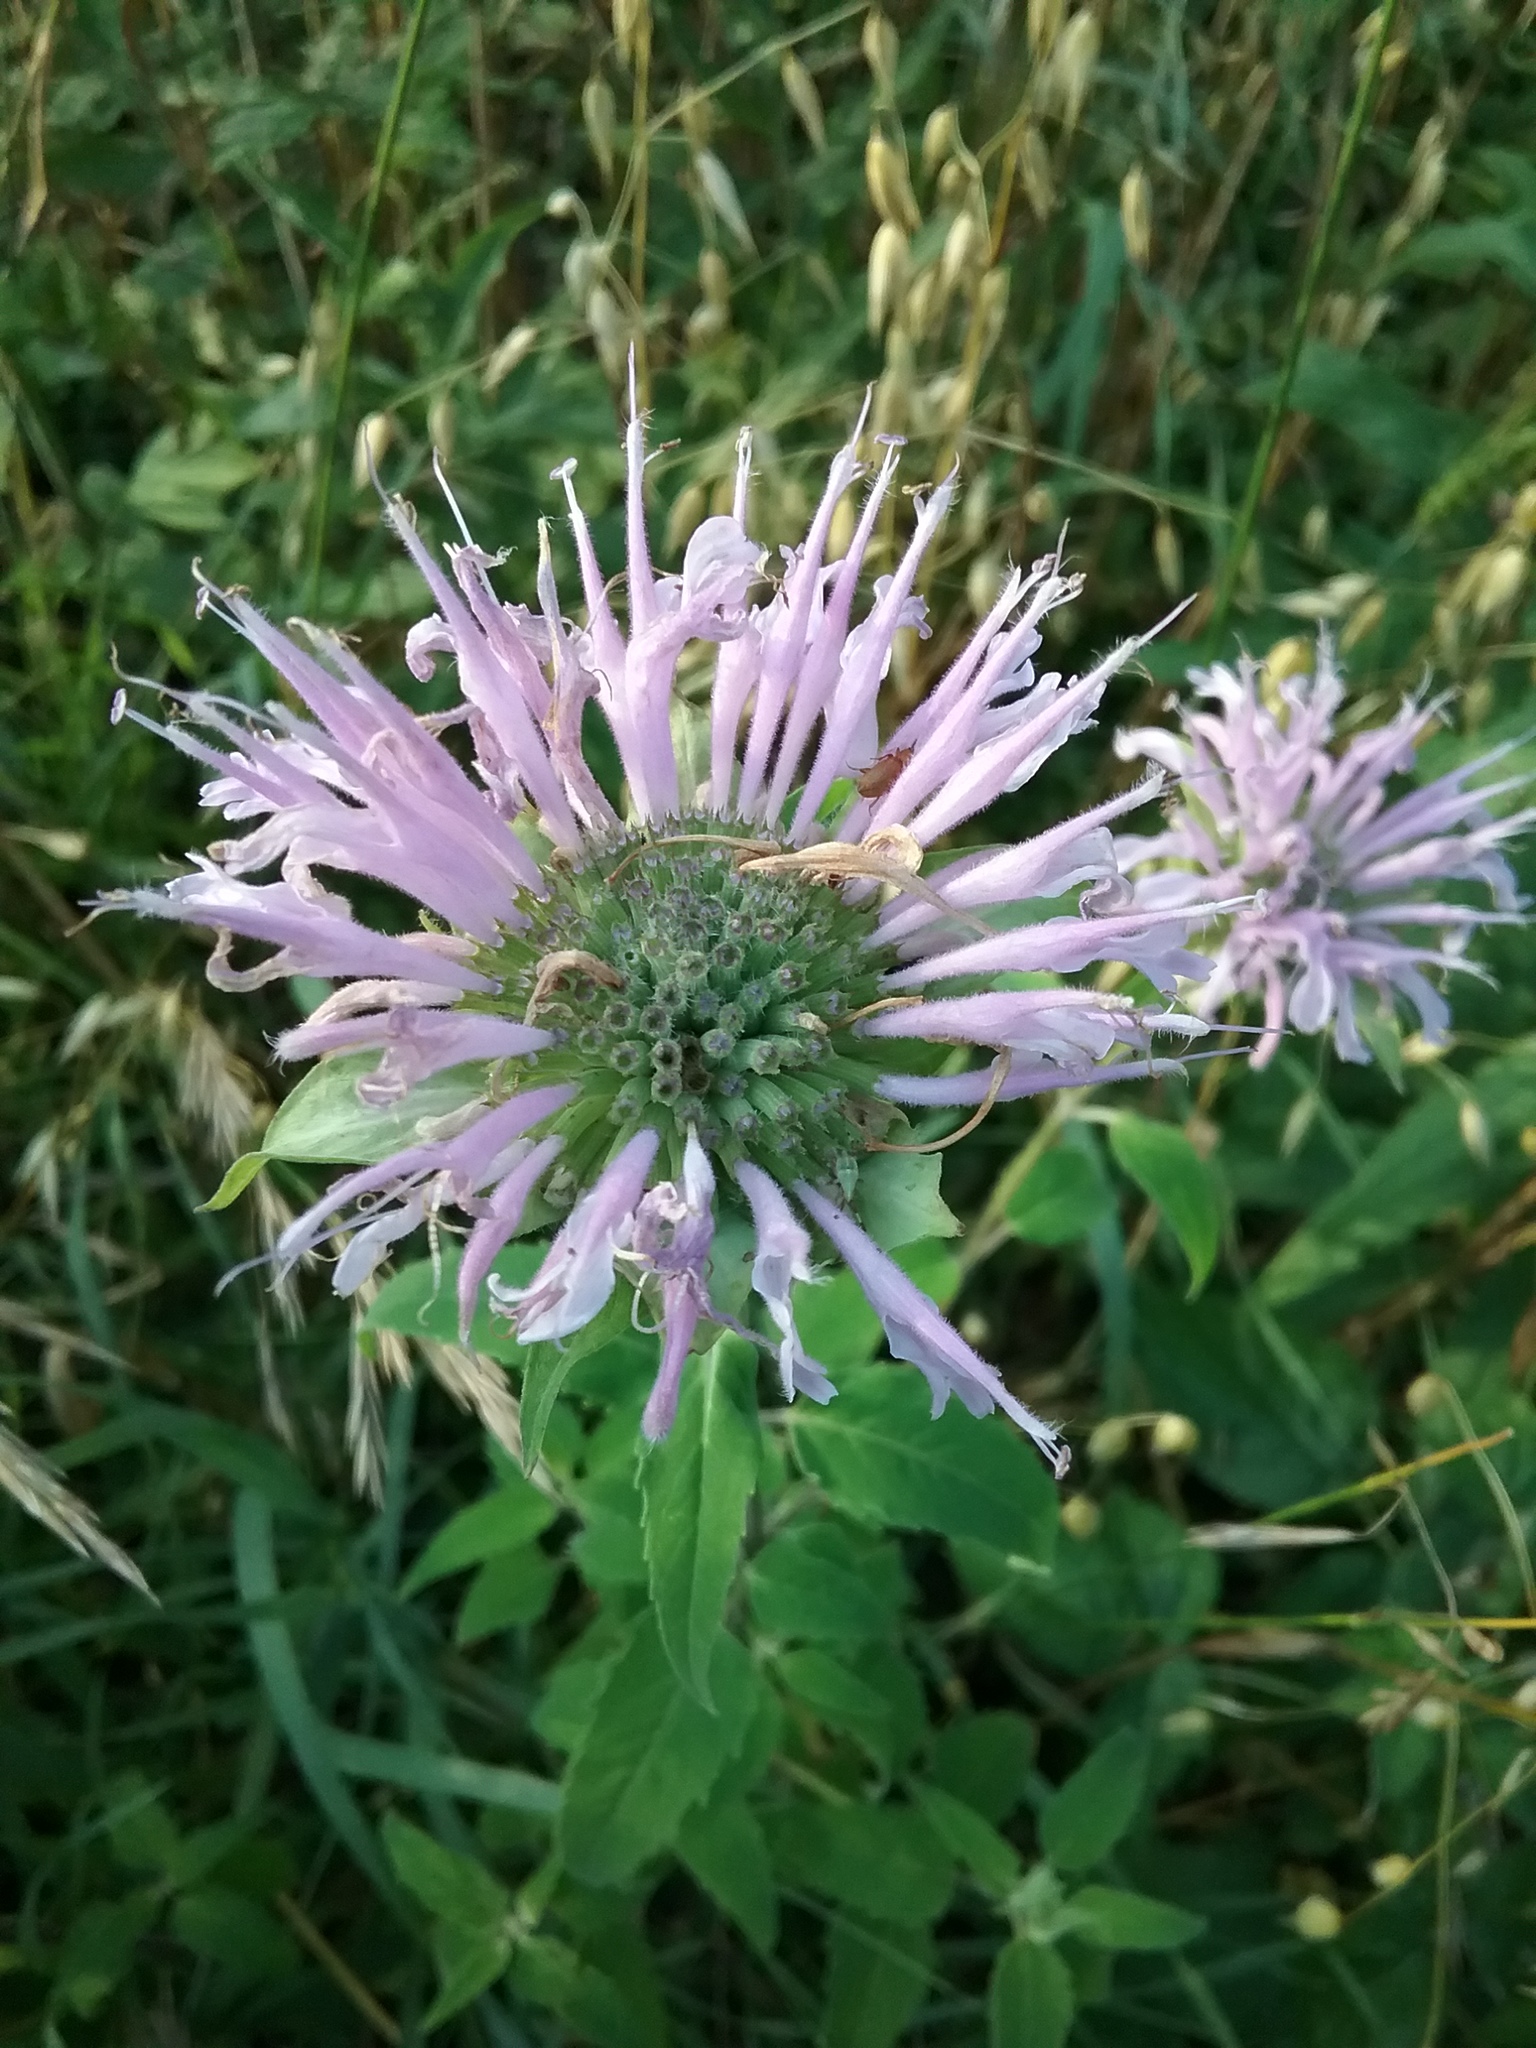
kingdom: Plantae
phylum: Tracheophyta
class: Magnoliopsida
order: Lamiales
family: Lamiaceae
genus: Monarda
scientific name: Monarda fistulosa
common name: Purple beebalm
